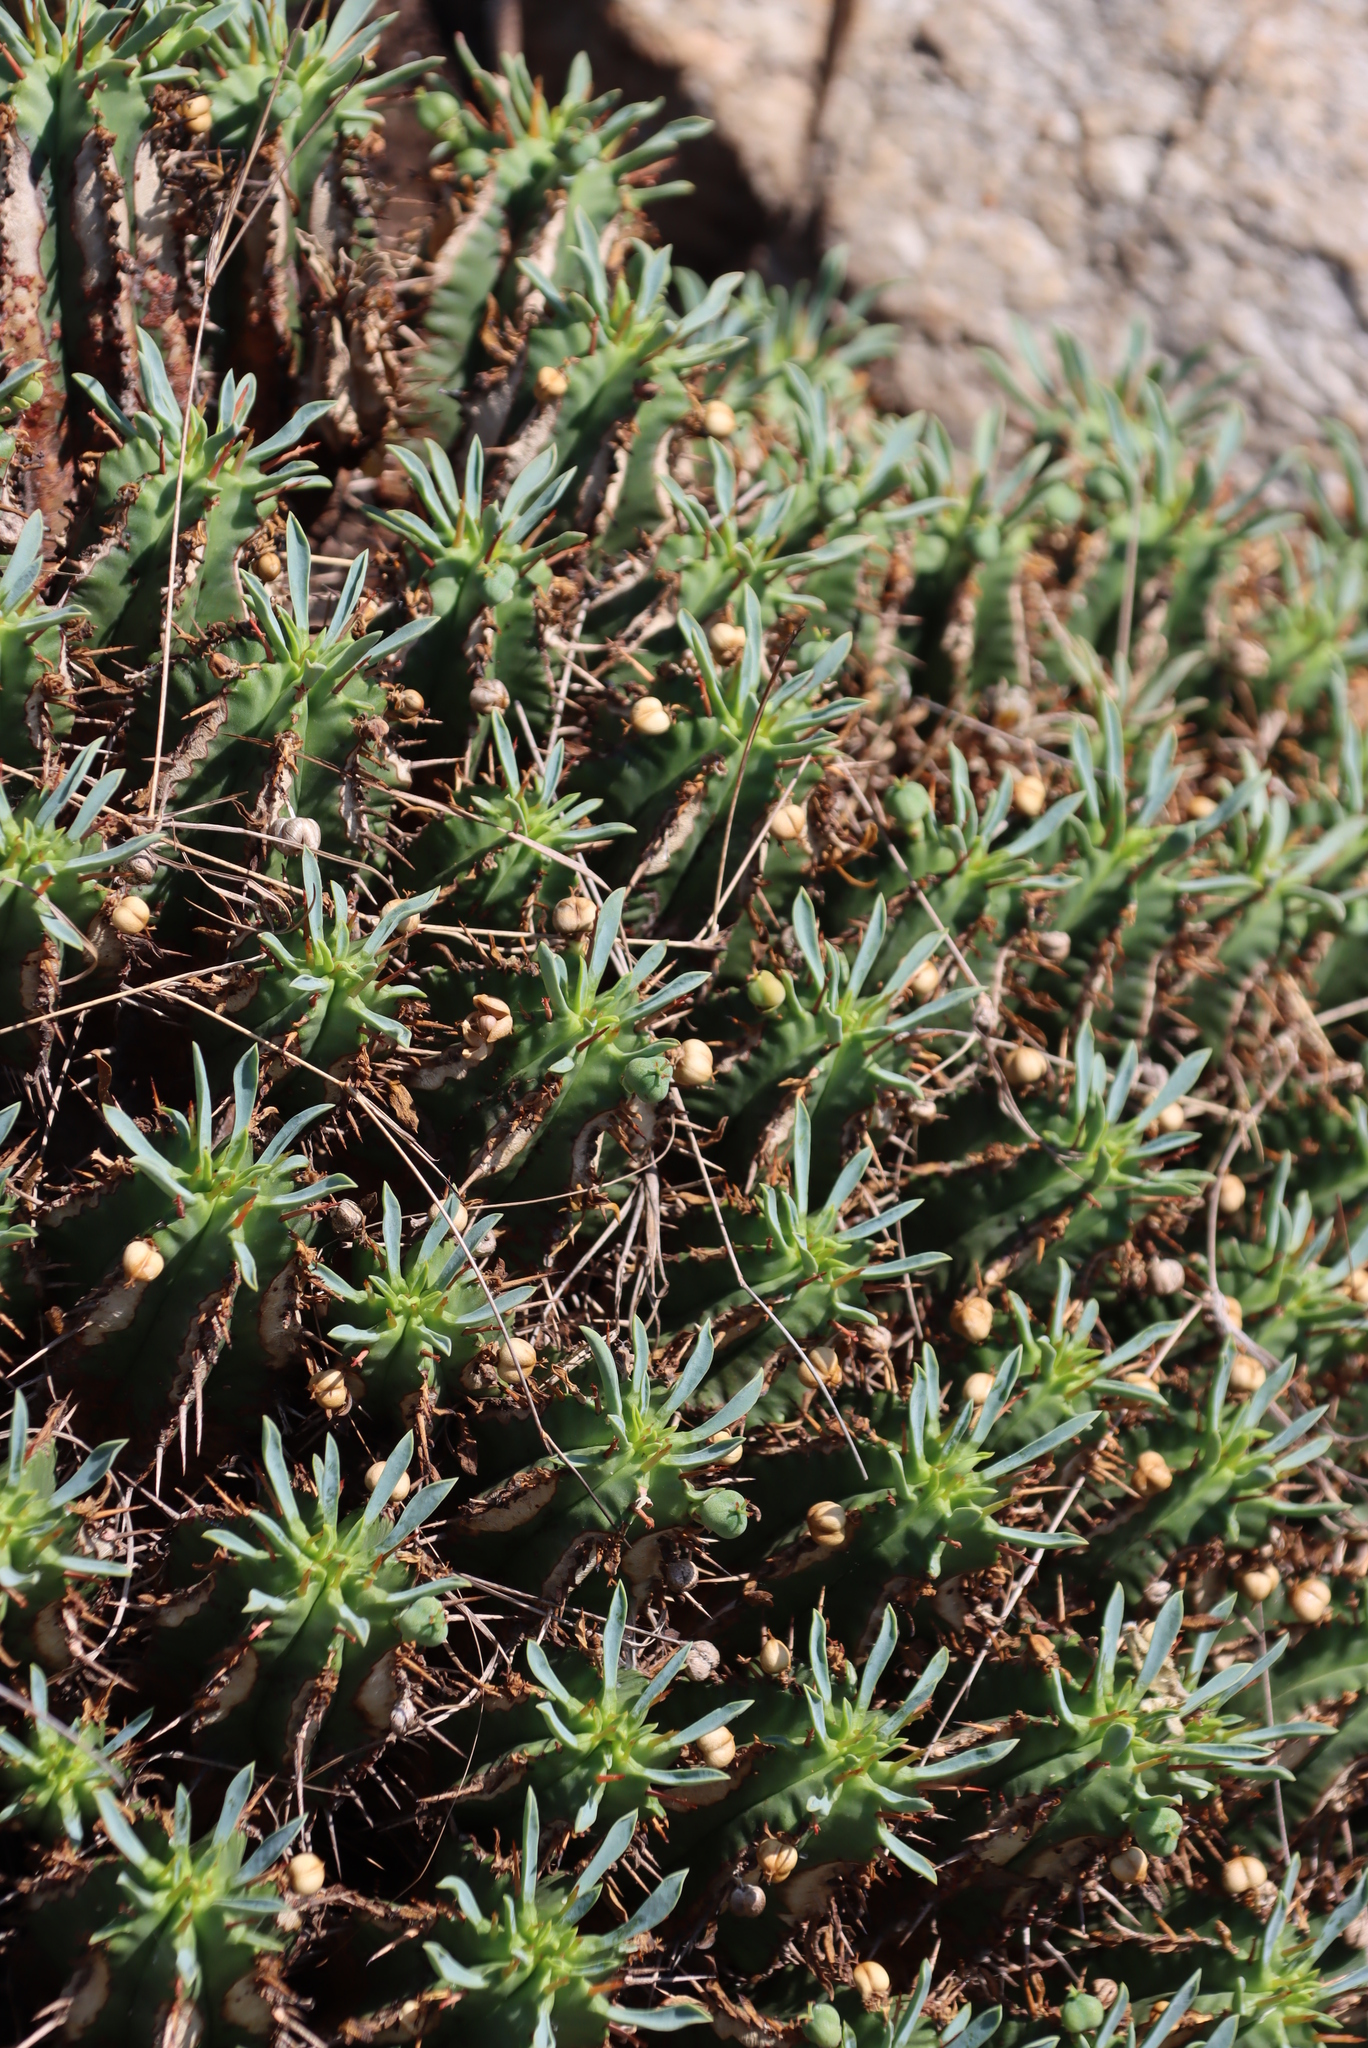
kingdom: Plantae
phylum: Tracheophyta
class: Magnoliopsida
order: Malpighiales
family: Euphorbiaceae
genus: Euphorbia
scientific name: Euphorbia pulvinata
